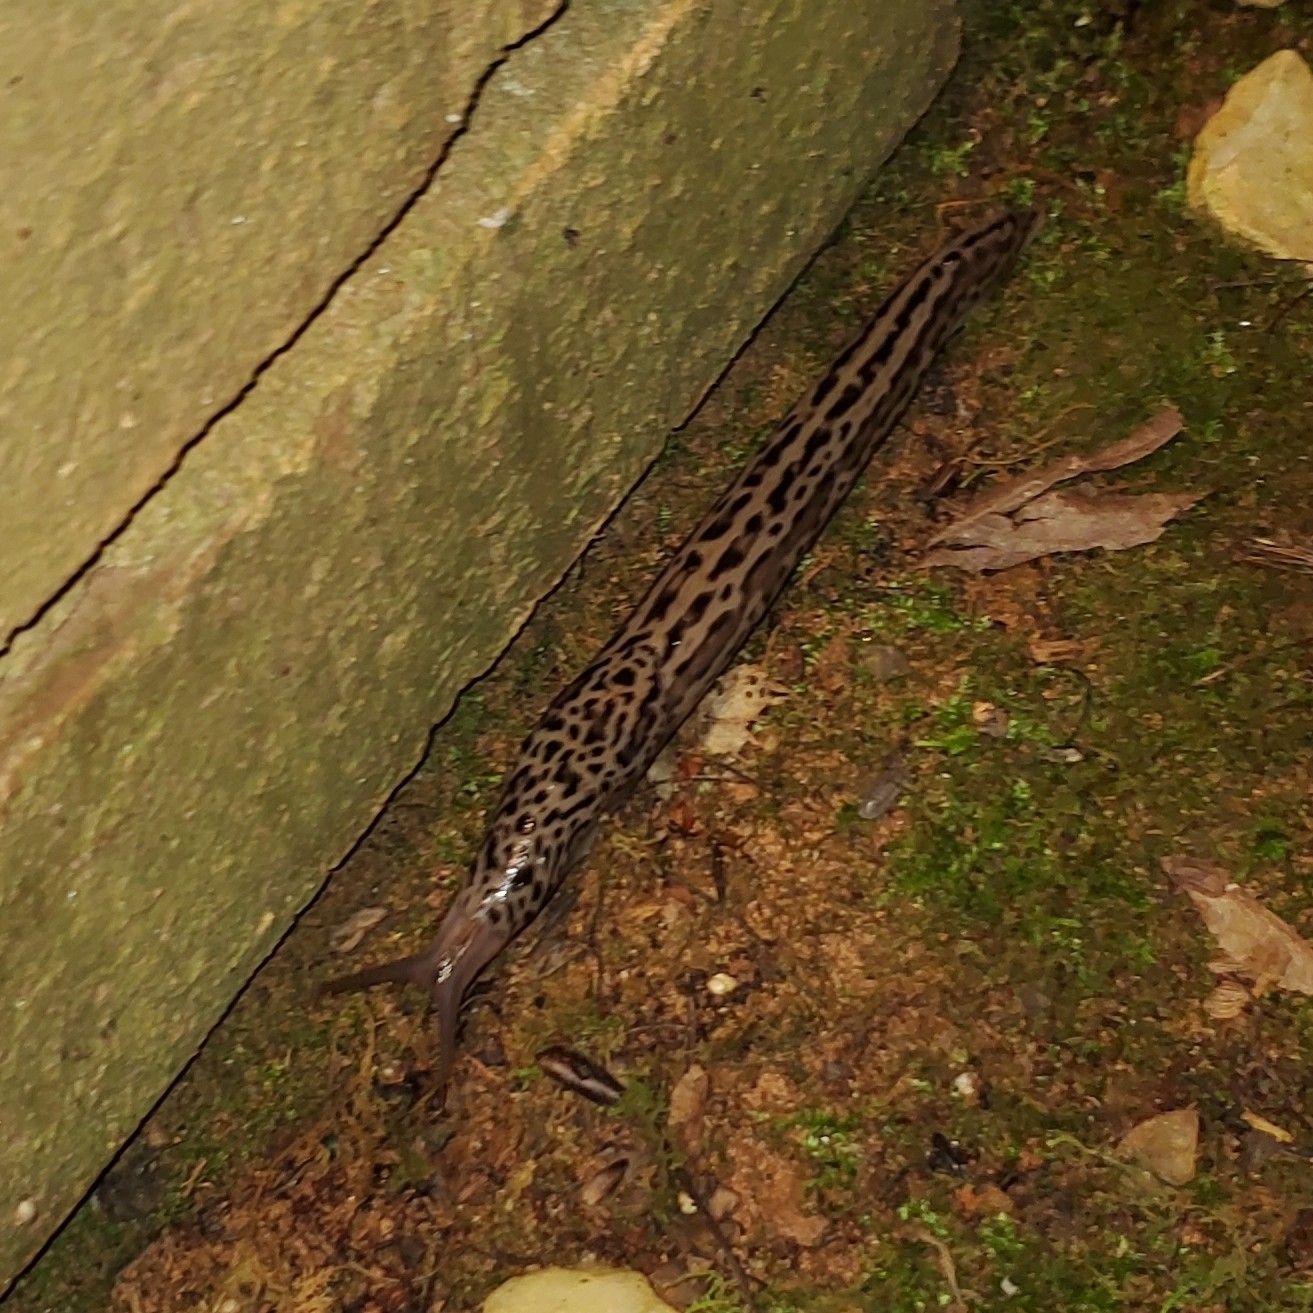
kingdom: Animalia
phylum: Mollusca
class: Gastropoda
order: Stylommatophora
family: Limacidae
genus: Limax
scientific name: Limax maximus
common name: Great grey slug
